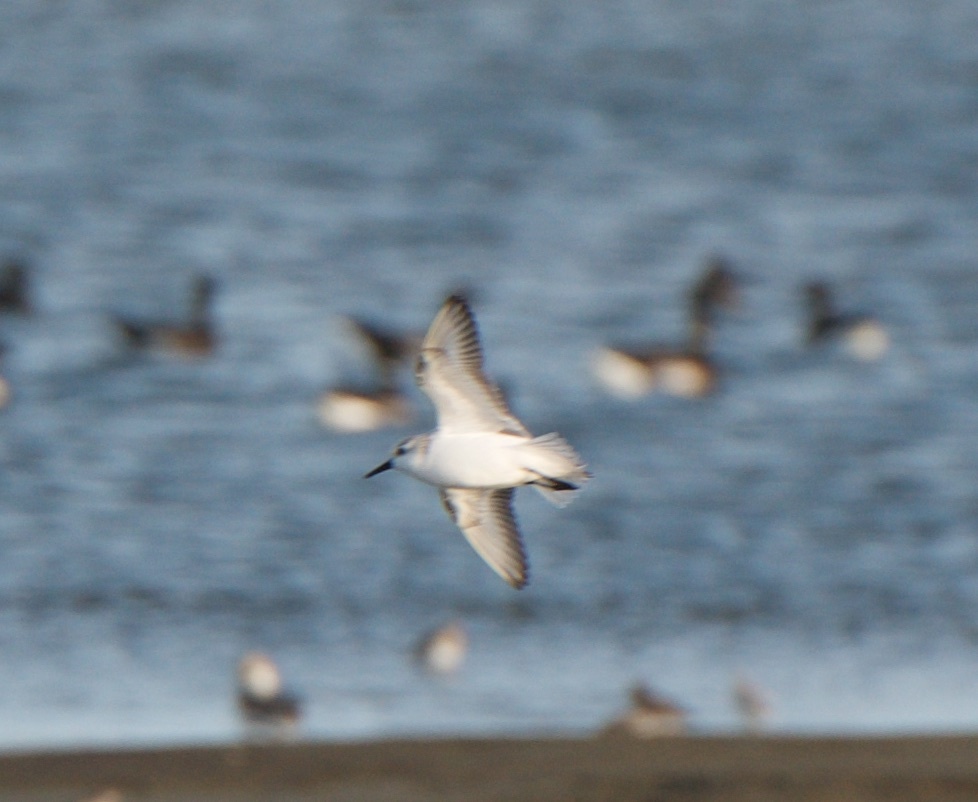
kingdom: Animalia
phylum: Chordata
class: Aves
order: Charadriiformes
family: Scolopacidae
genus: Calidris
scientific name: Calidris alba
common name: Sanderling
